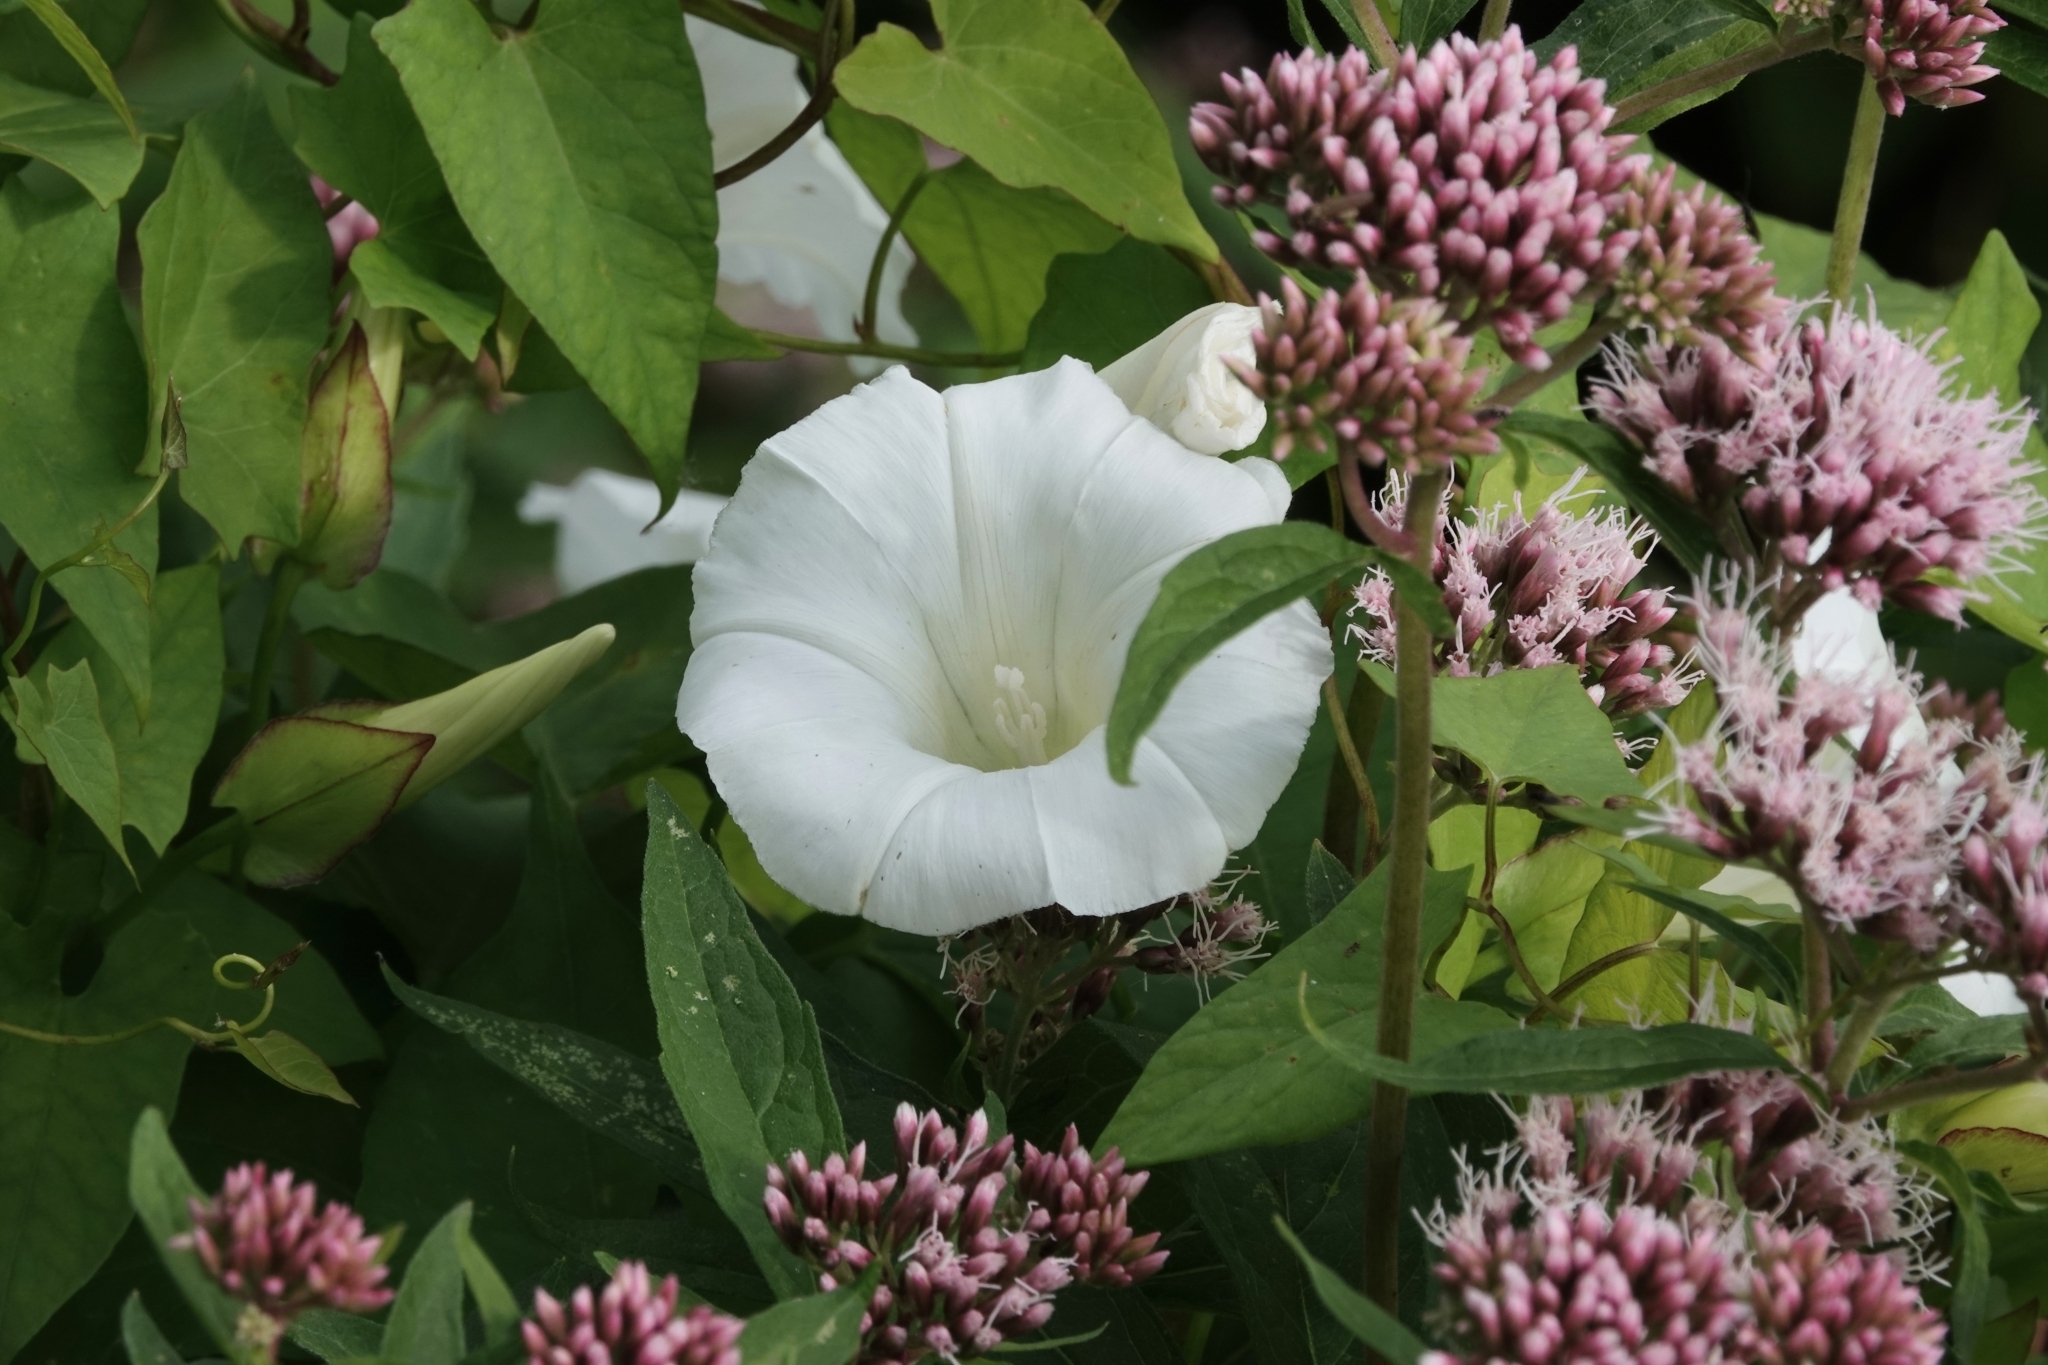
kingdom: Plantae
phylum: Tracheophyta
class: Magnoliopsida
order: Solanales
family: Convolvulaceae
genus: Calystegia
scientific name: Calystegia sepium
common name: Hedge bindweed
